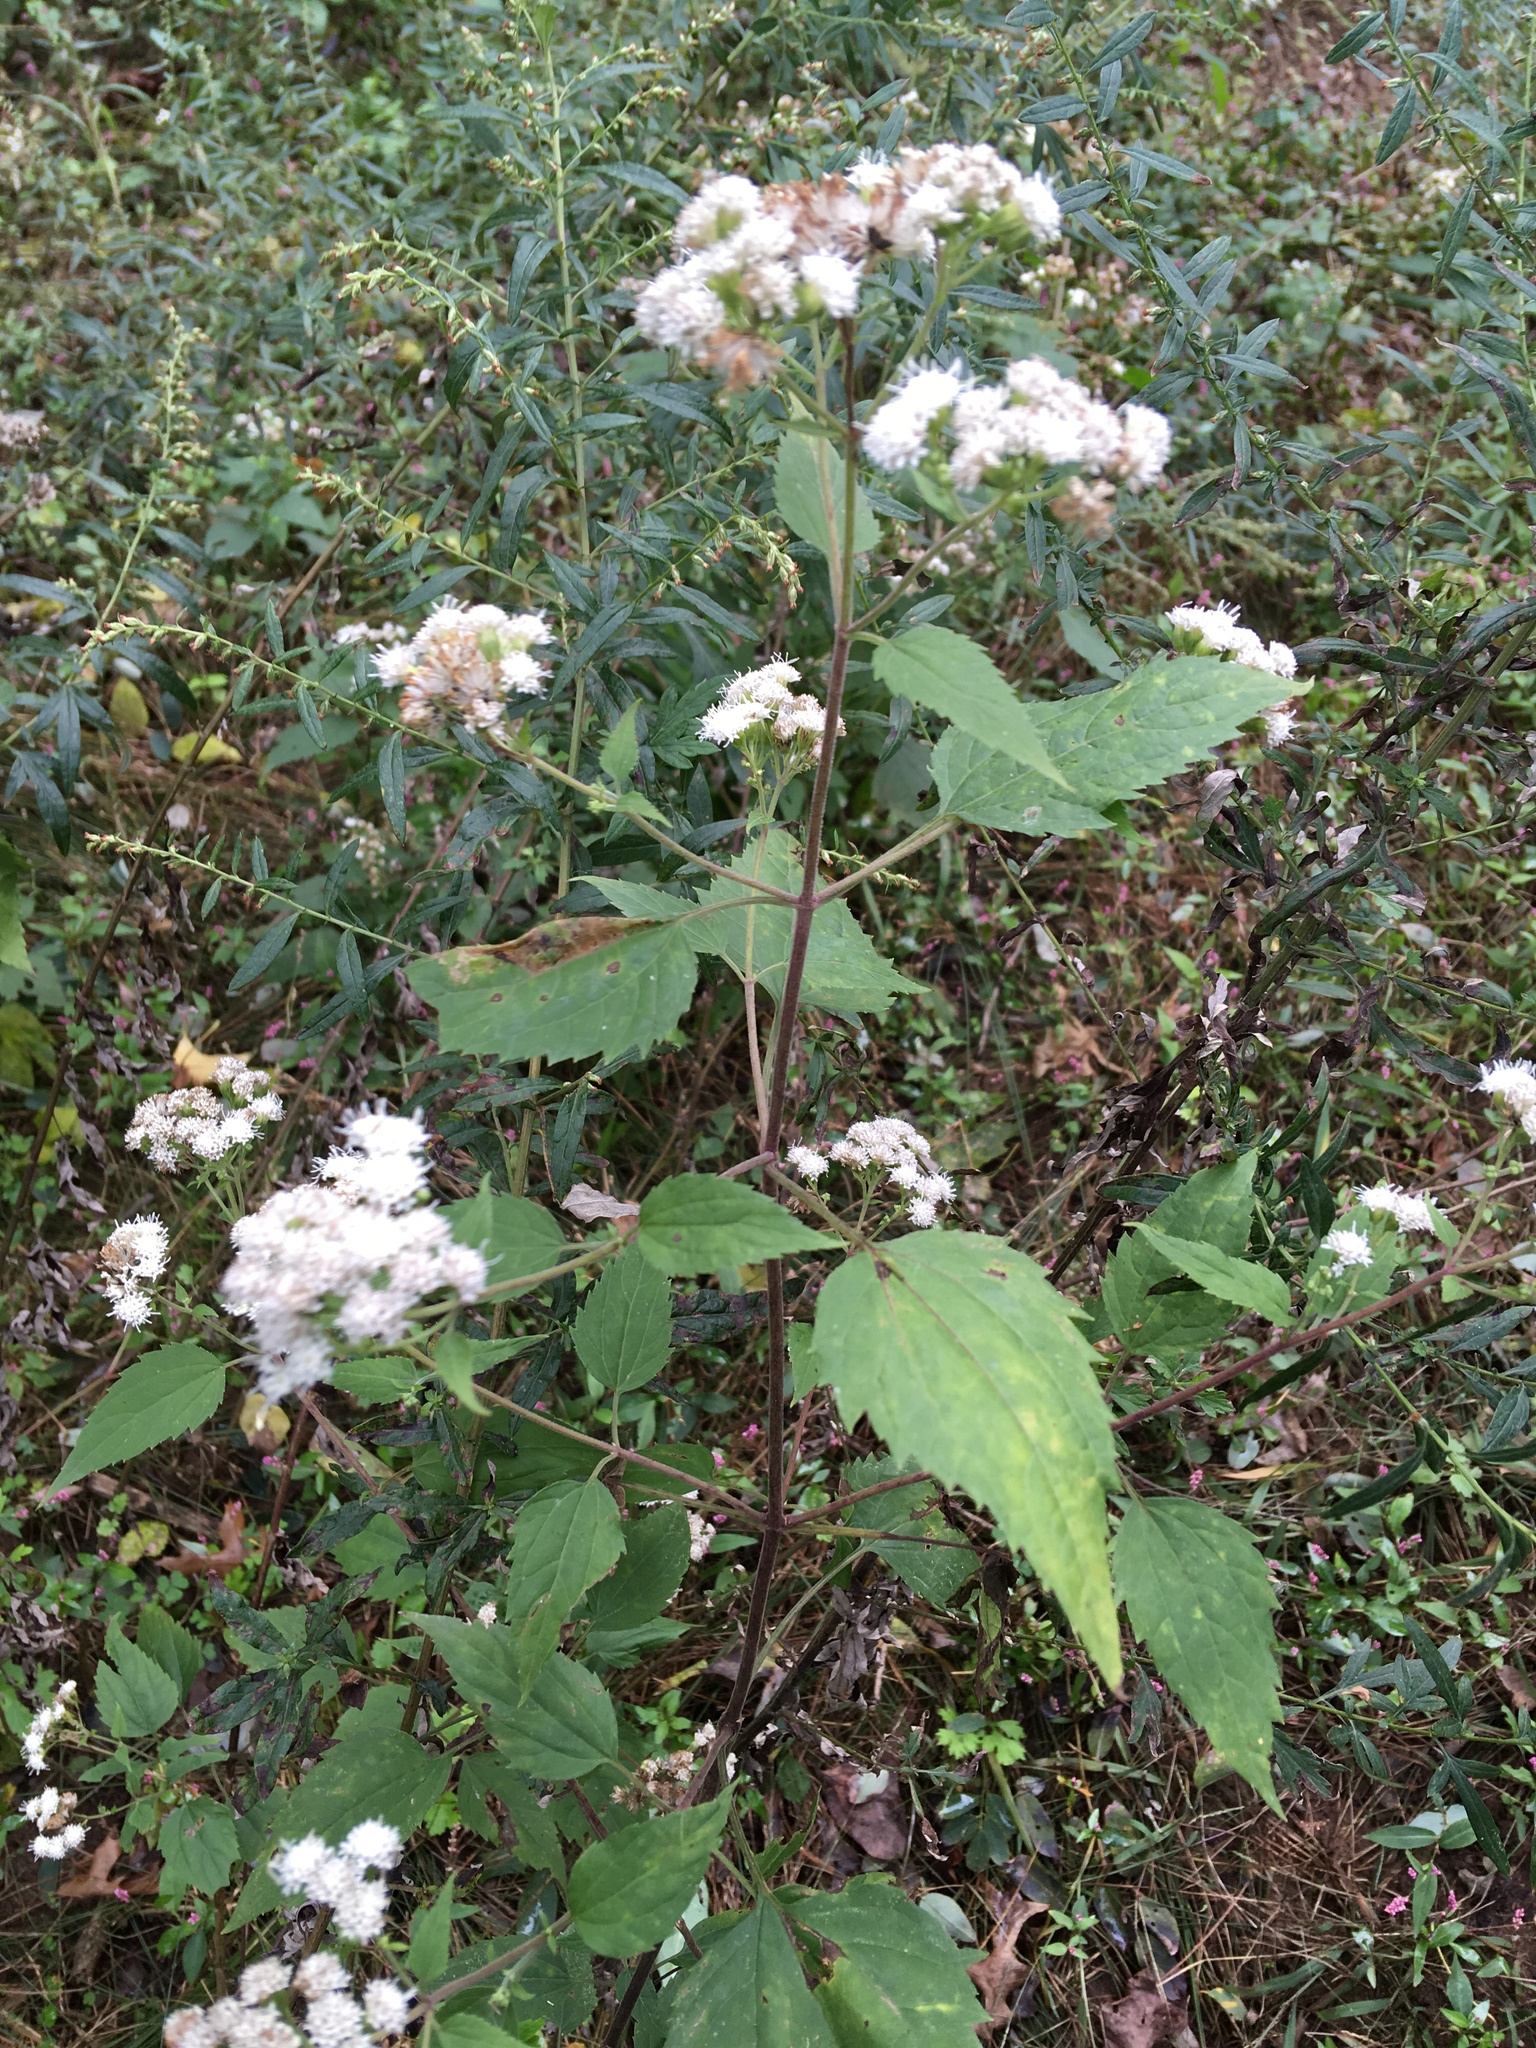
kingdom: Plantae
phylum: Tracheophyta
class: Magnoliopsida
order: Asterales
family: Asteraceae
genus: Ageratina
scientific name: Ageratina altissima
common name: White snakeroot
